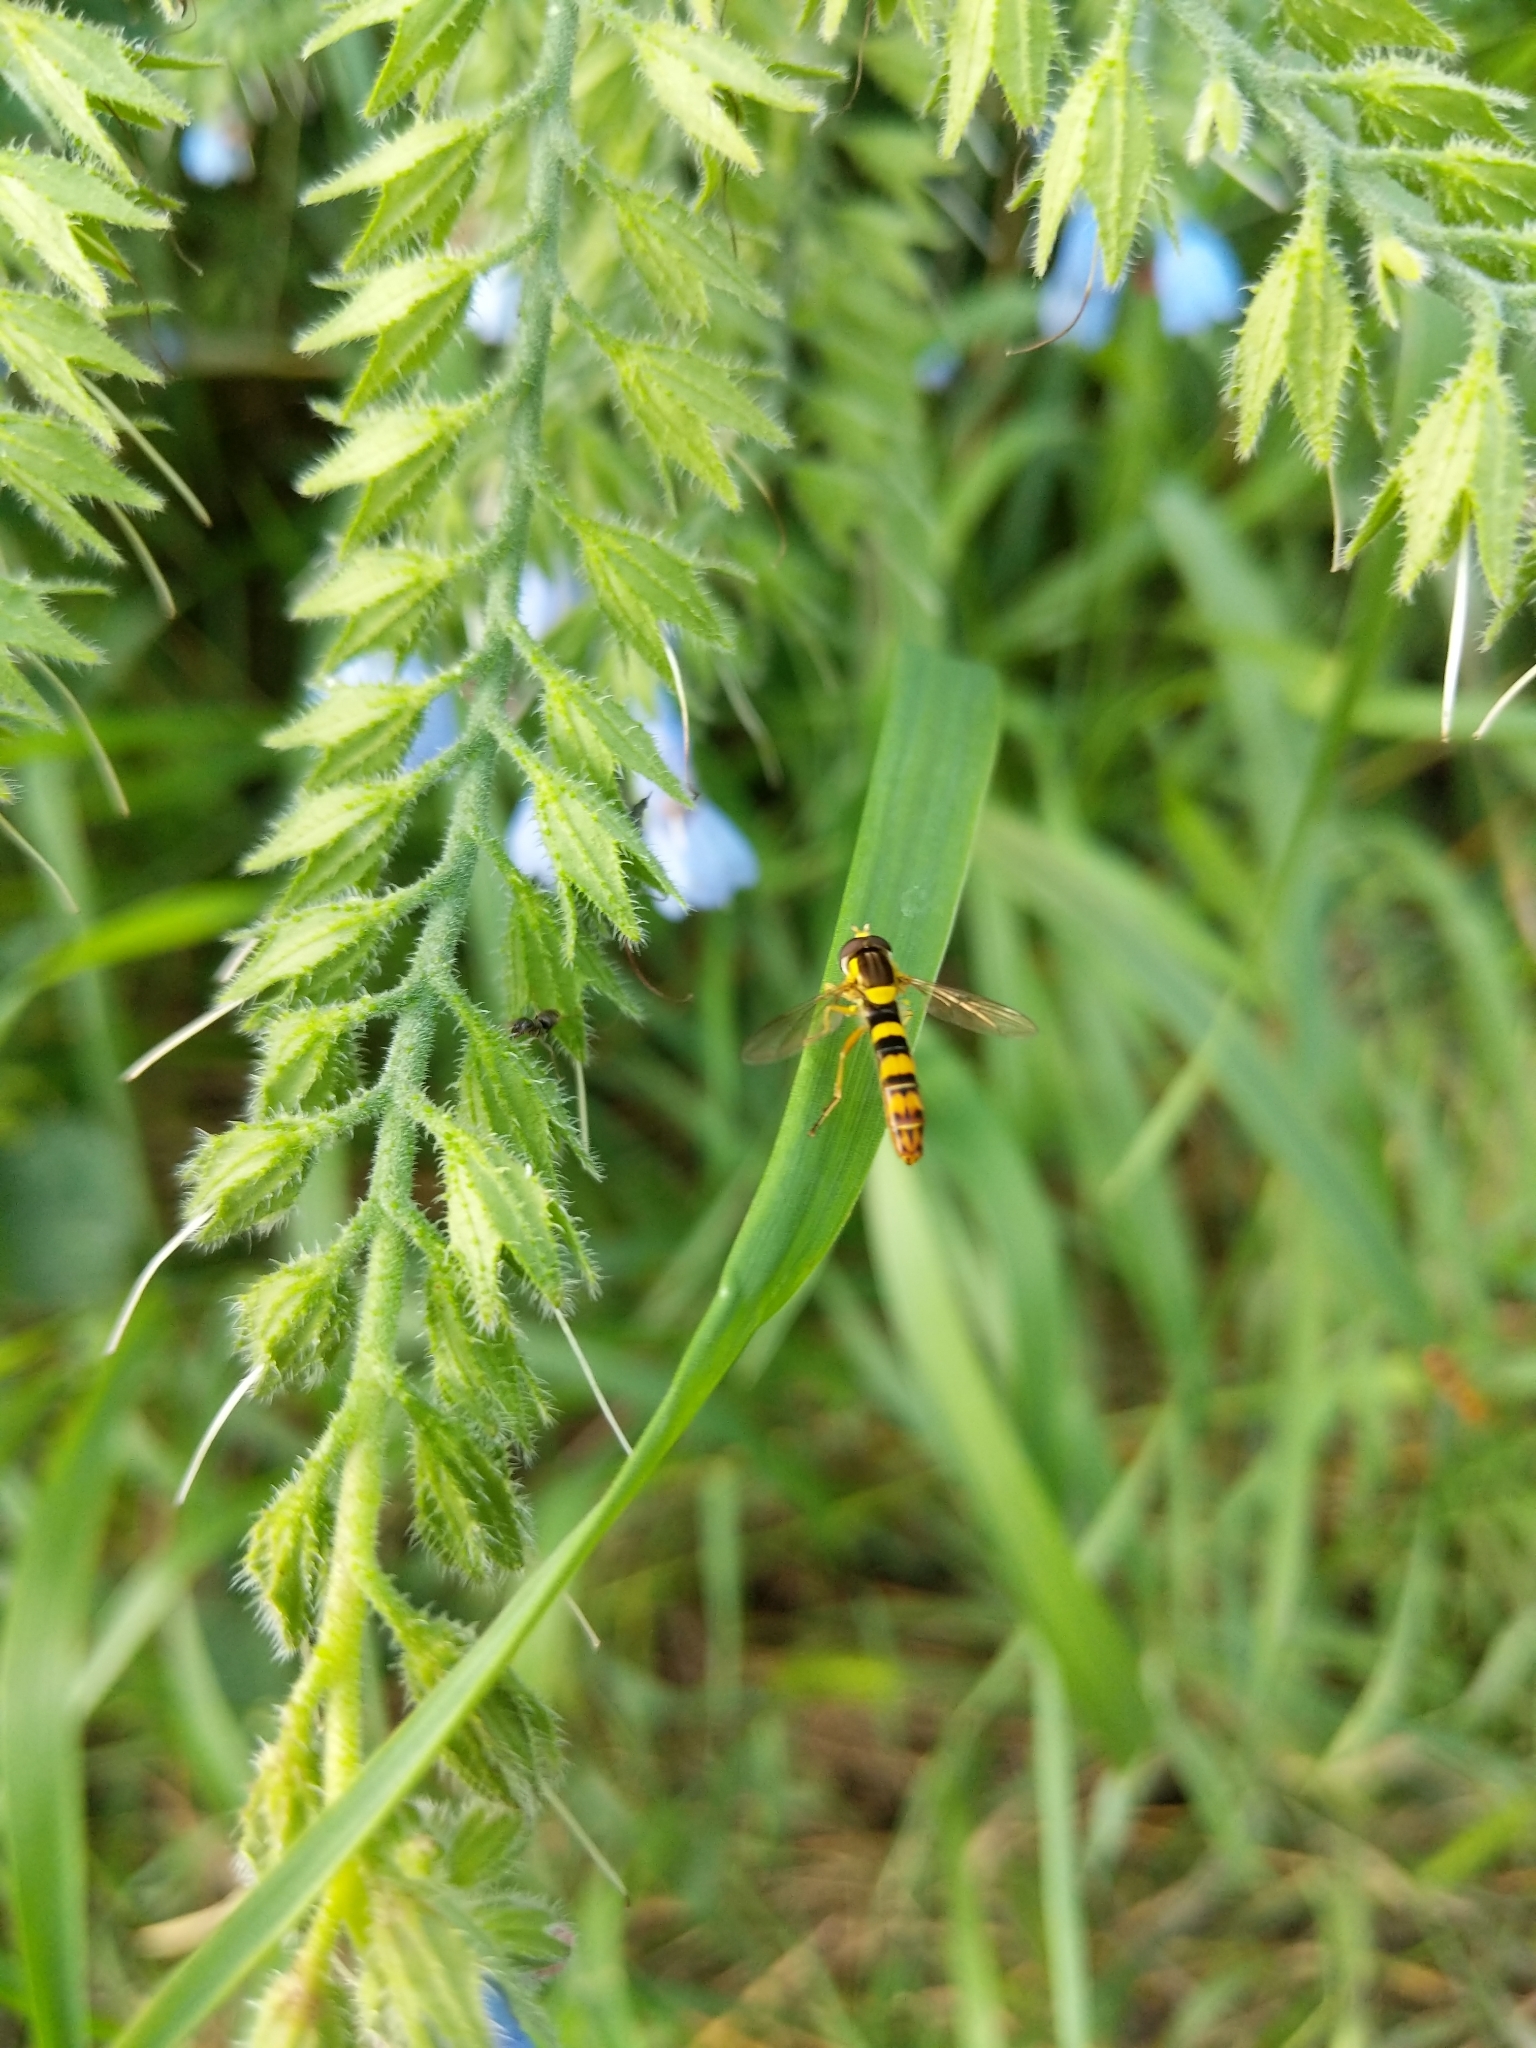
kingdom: Animalia
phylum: Arthropoda
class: Insecta
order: Diptera
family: Syrphidae
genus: Sphaerophoria
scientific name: Sphaerophoria scripta
